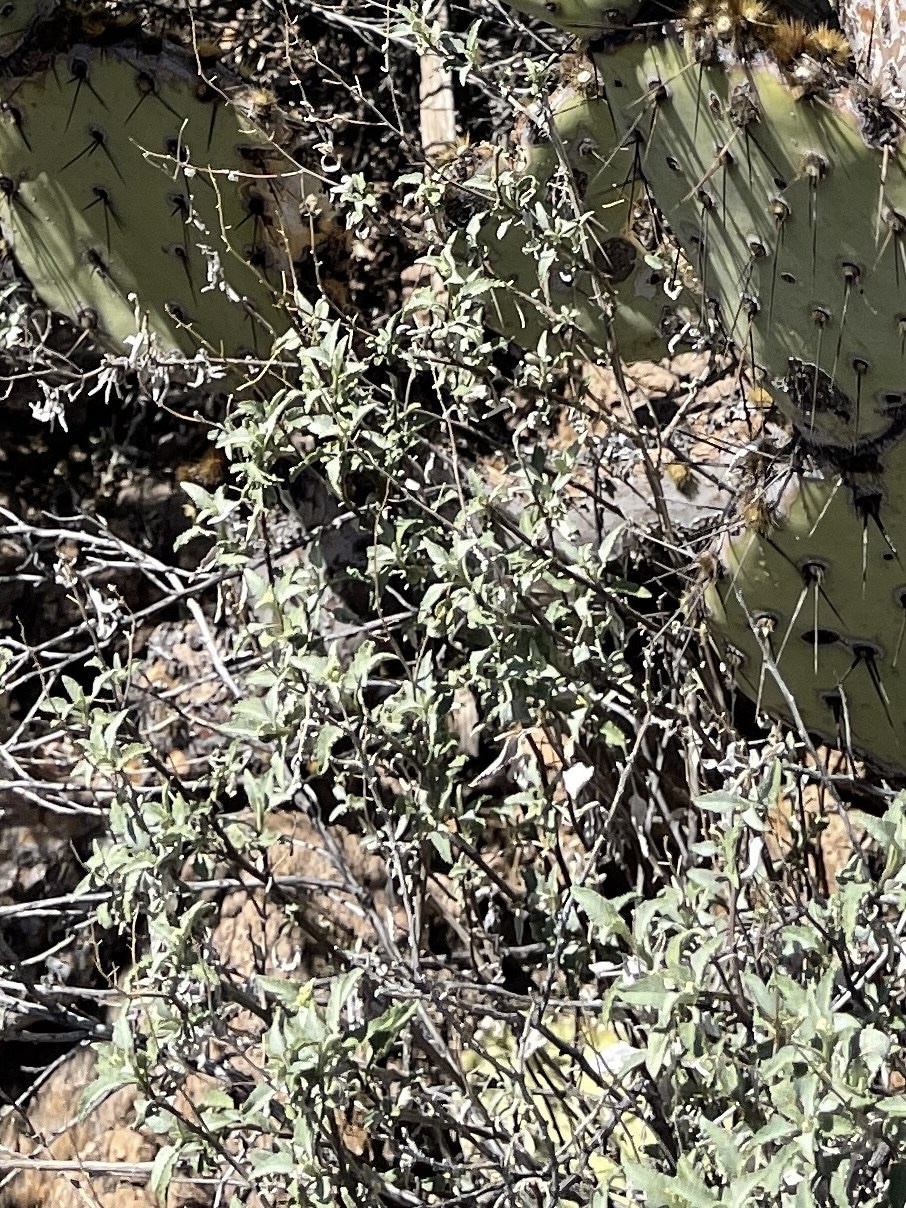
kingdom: Plantae
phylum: Tracheophyta
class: Magnoliopsida
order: Asterales
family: Asteraceae
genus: Ambrosia
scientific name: Ambrosia deltoidea
